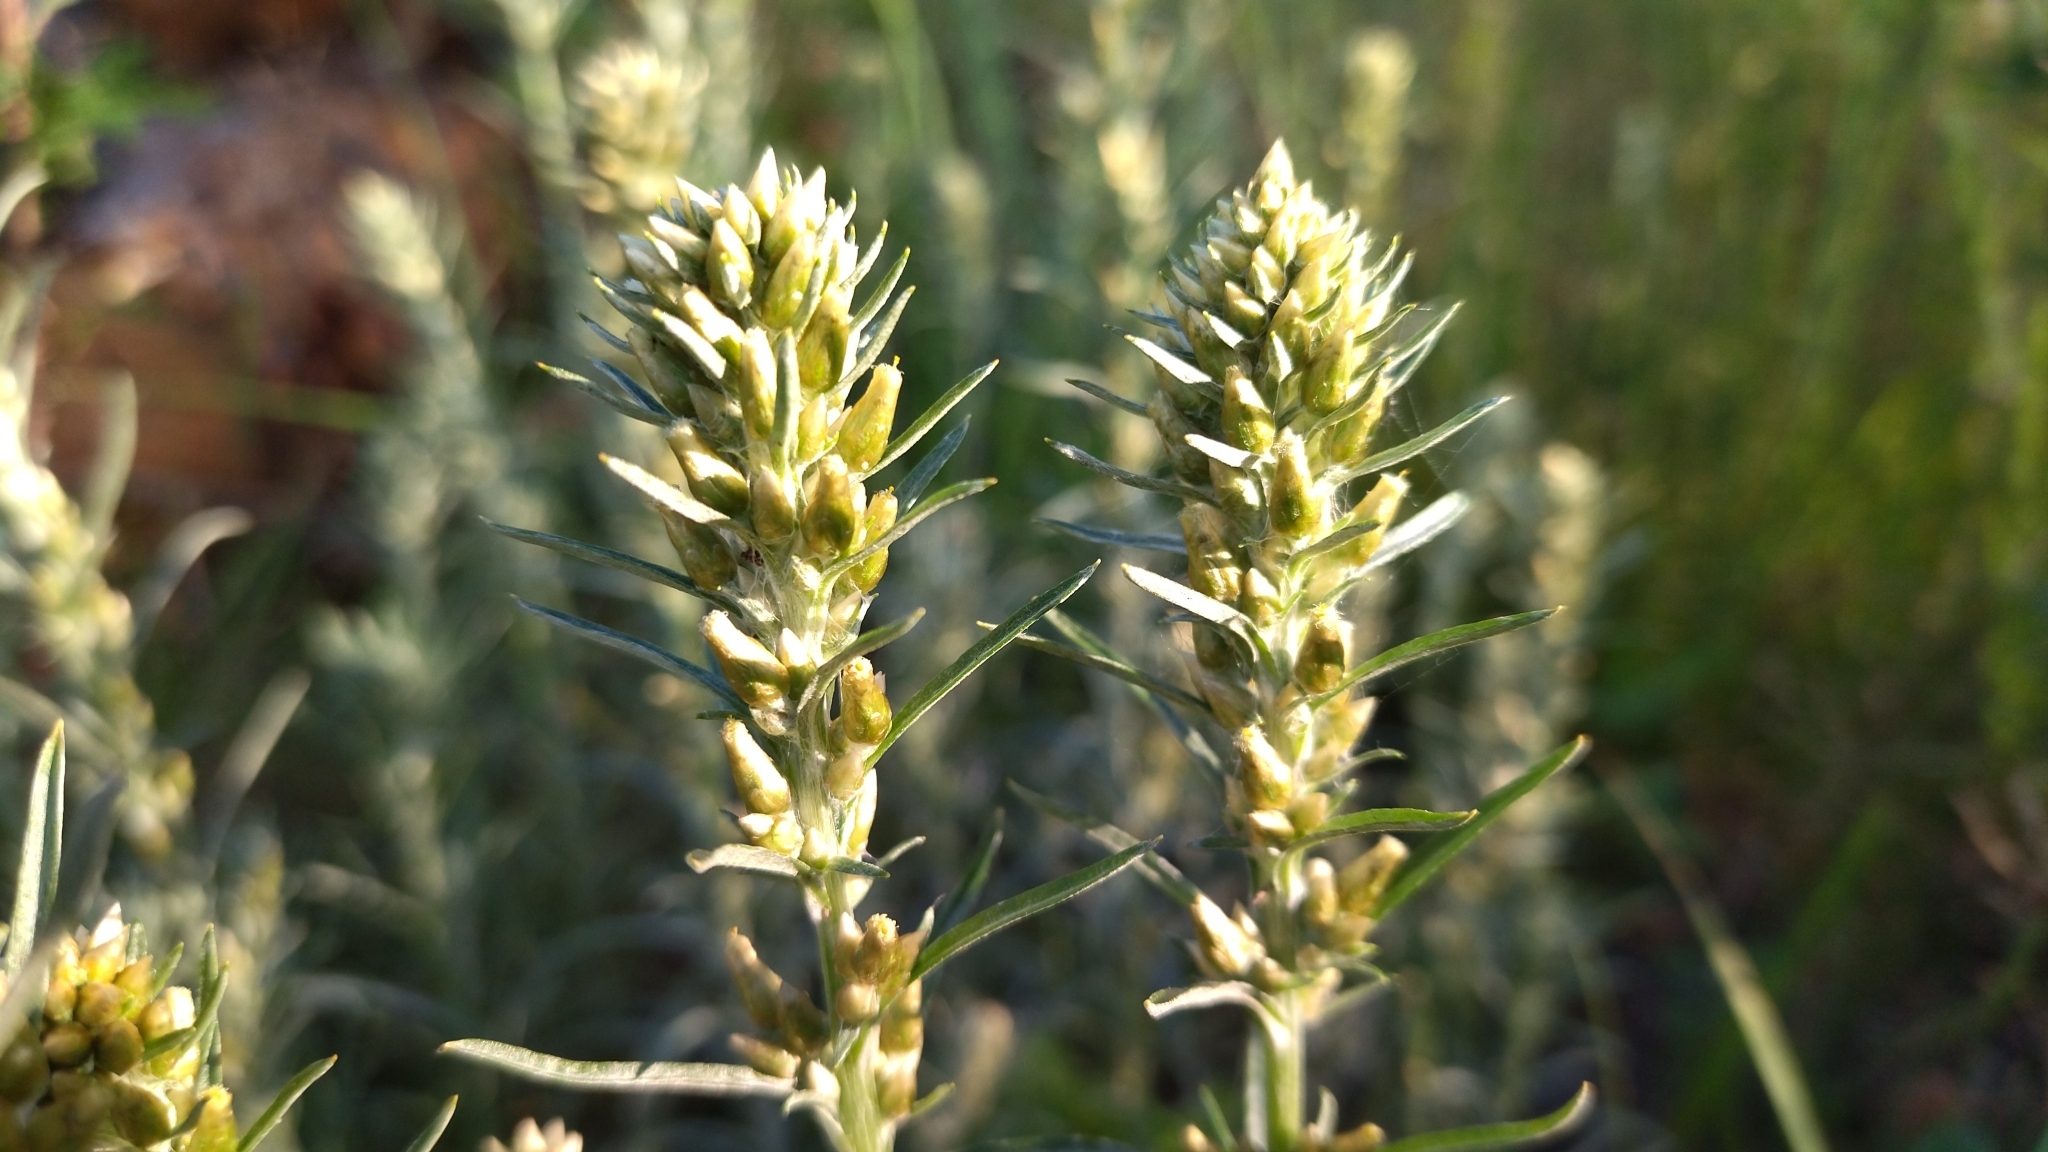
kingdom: Plantae
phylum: Tracheophyta
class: Magnoliopsida
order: Asterales
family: Asteraceae
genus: Omalotheca
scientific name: Omalotheca sylvatica
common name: Heath cudweed
